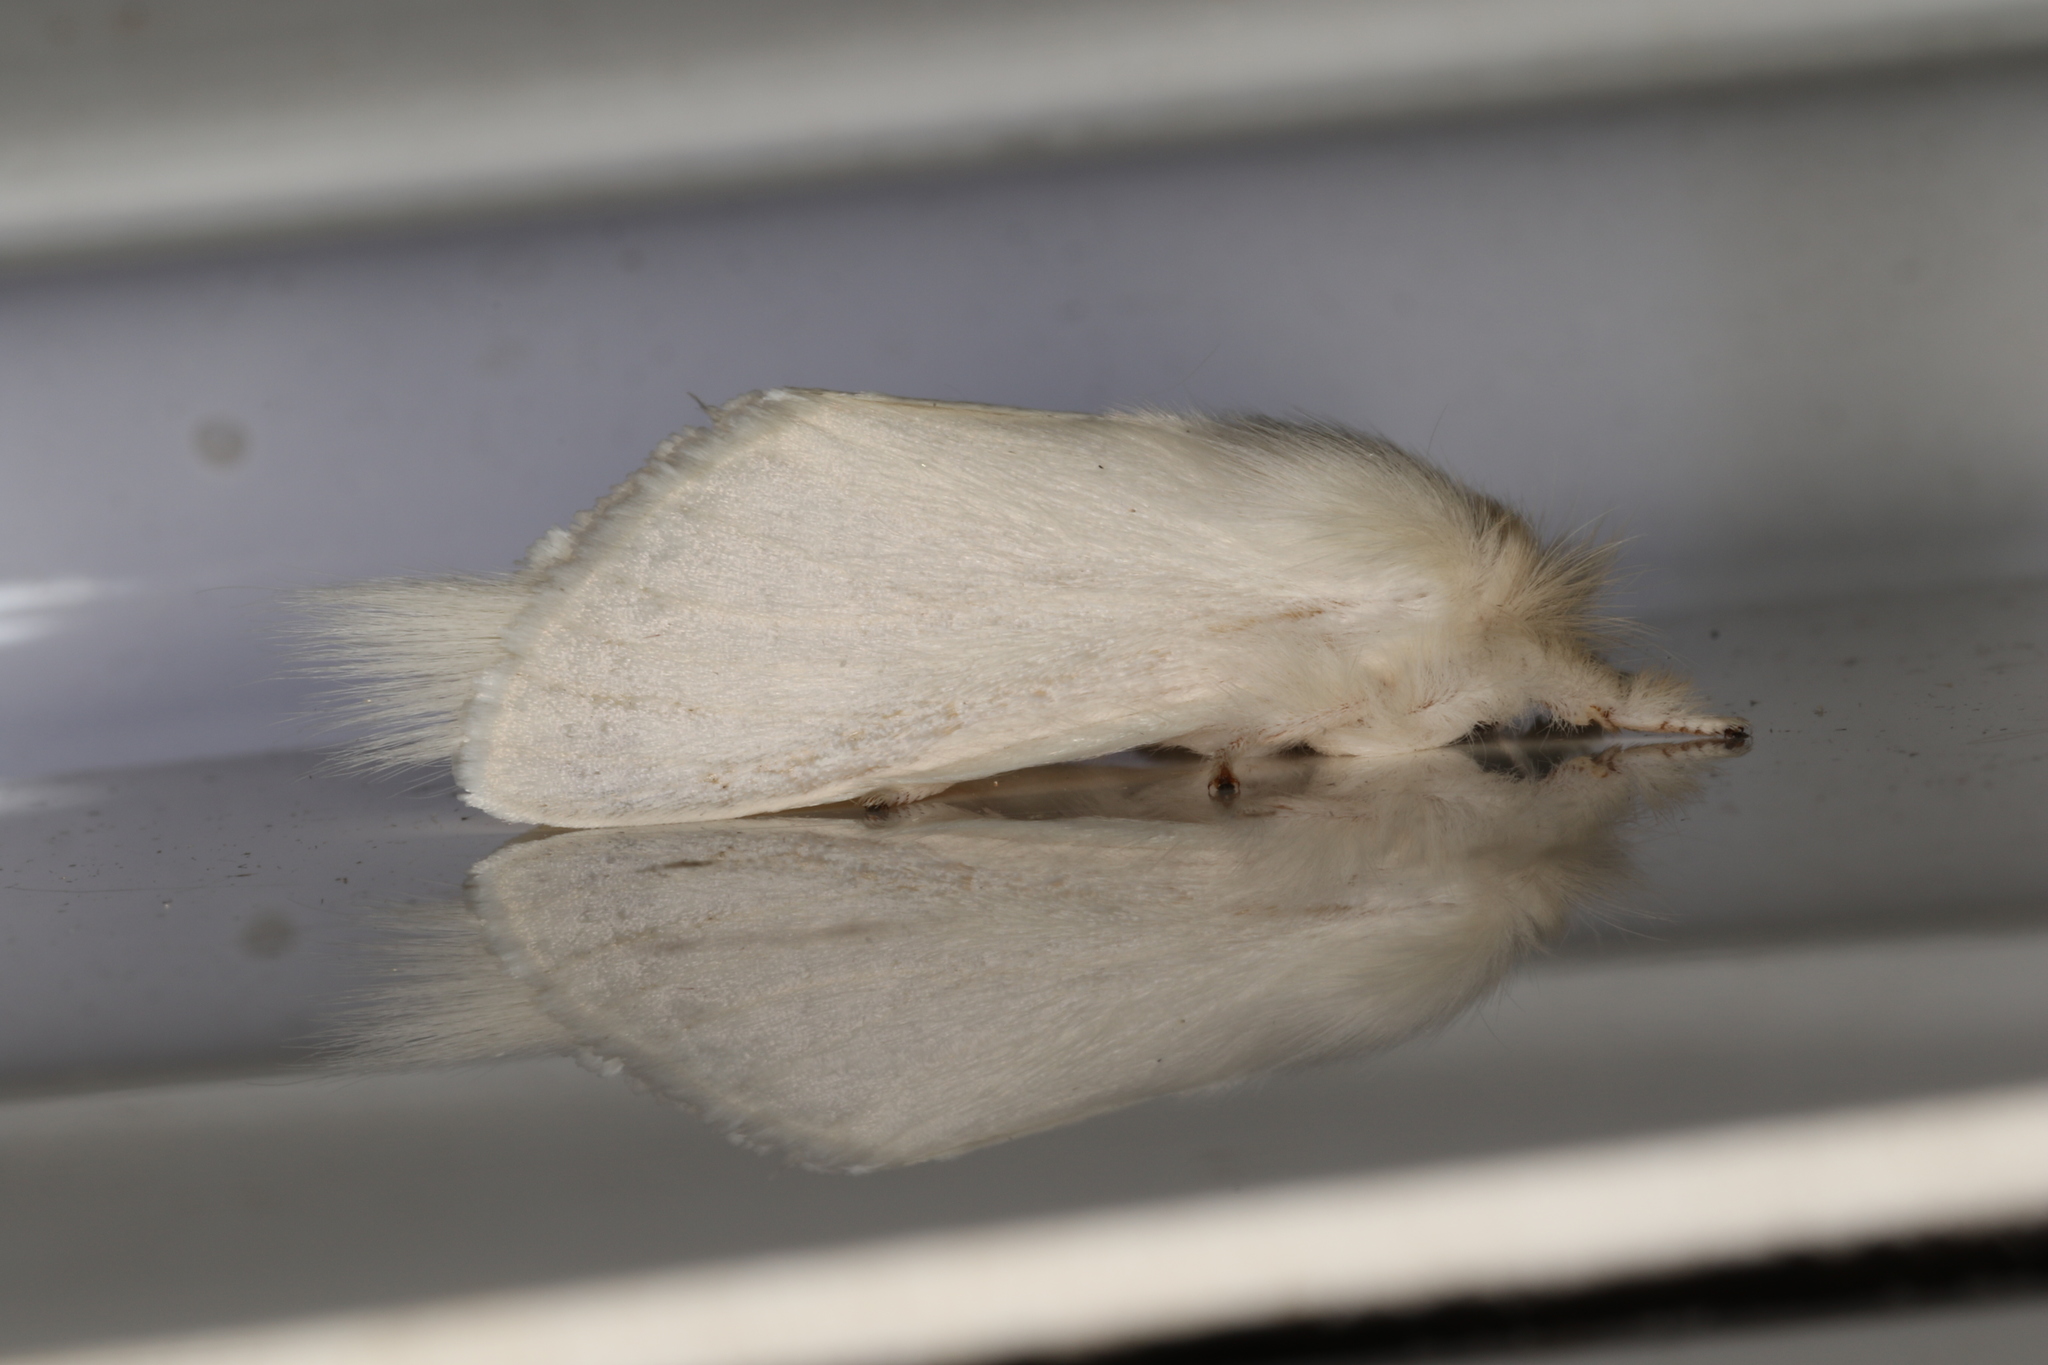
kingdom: Animalia
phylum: Arthropoda
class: Insecta
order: Lepidoptera
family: Notodontidae
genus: Trichiocercus
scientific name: Trichiocercus sparshalli
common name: Long-tailed satin
